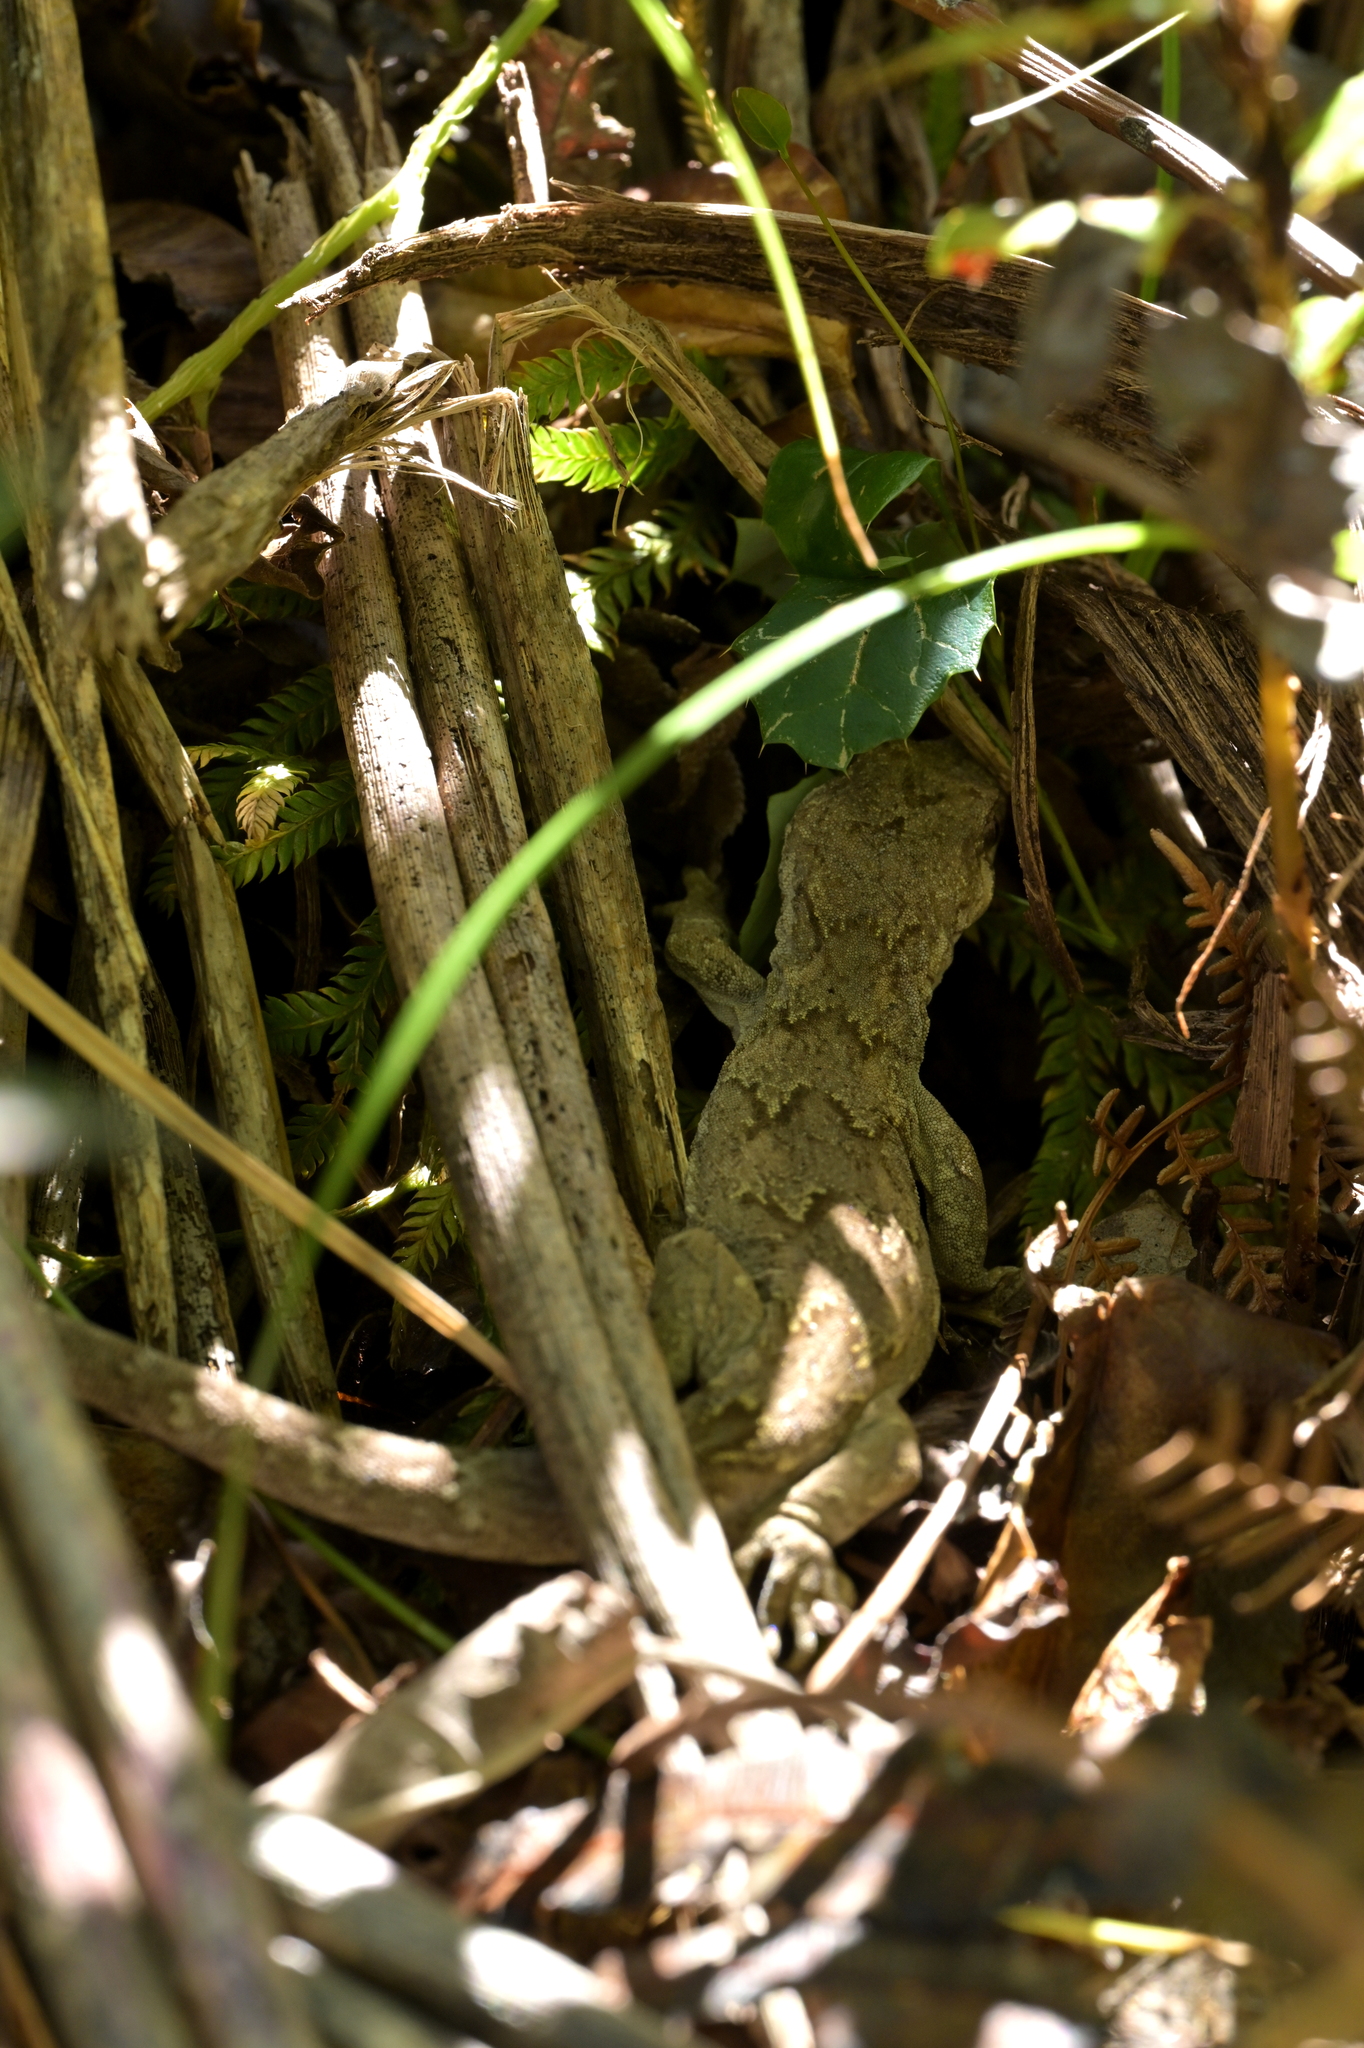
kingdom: Animalia
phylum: Chordata
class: Squamata
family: Diplodactylidae
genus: Mokopirirakau
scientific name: Mokopirirakau
